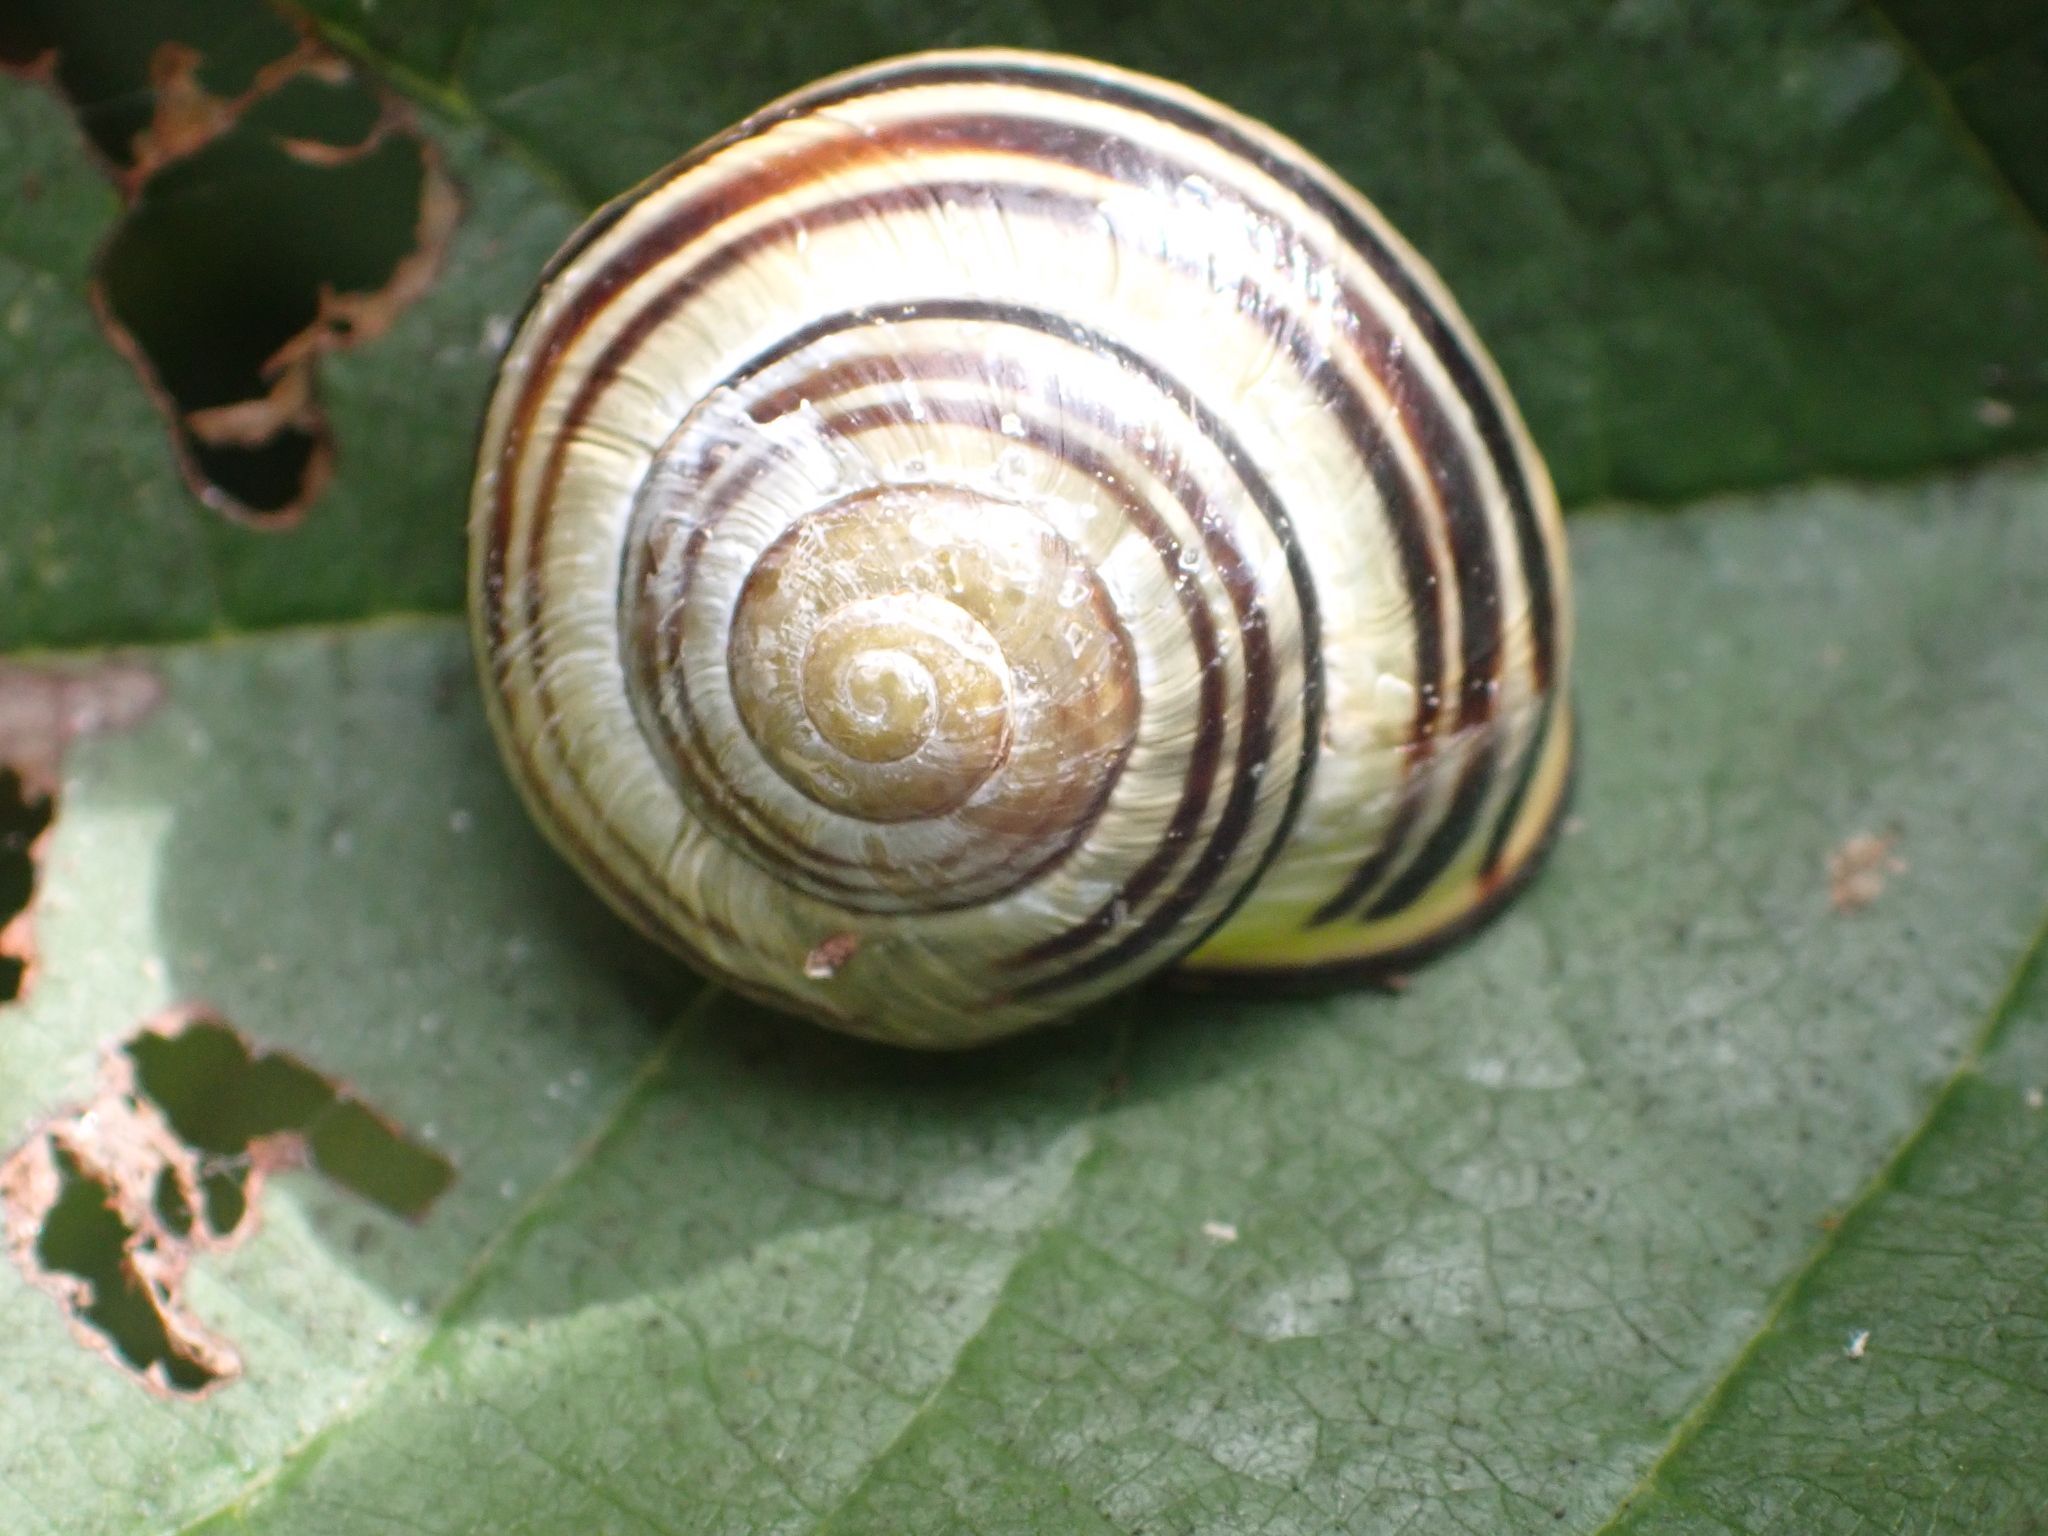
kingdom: Animalia
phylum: Mollusca
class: Gastropoda
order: Stylommatophora
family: Helicidae
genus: Cepaea
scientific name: Cepaea nemoralis
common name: Grovesnail
